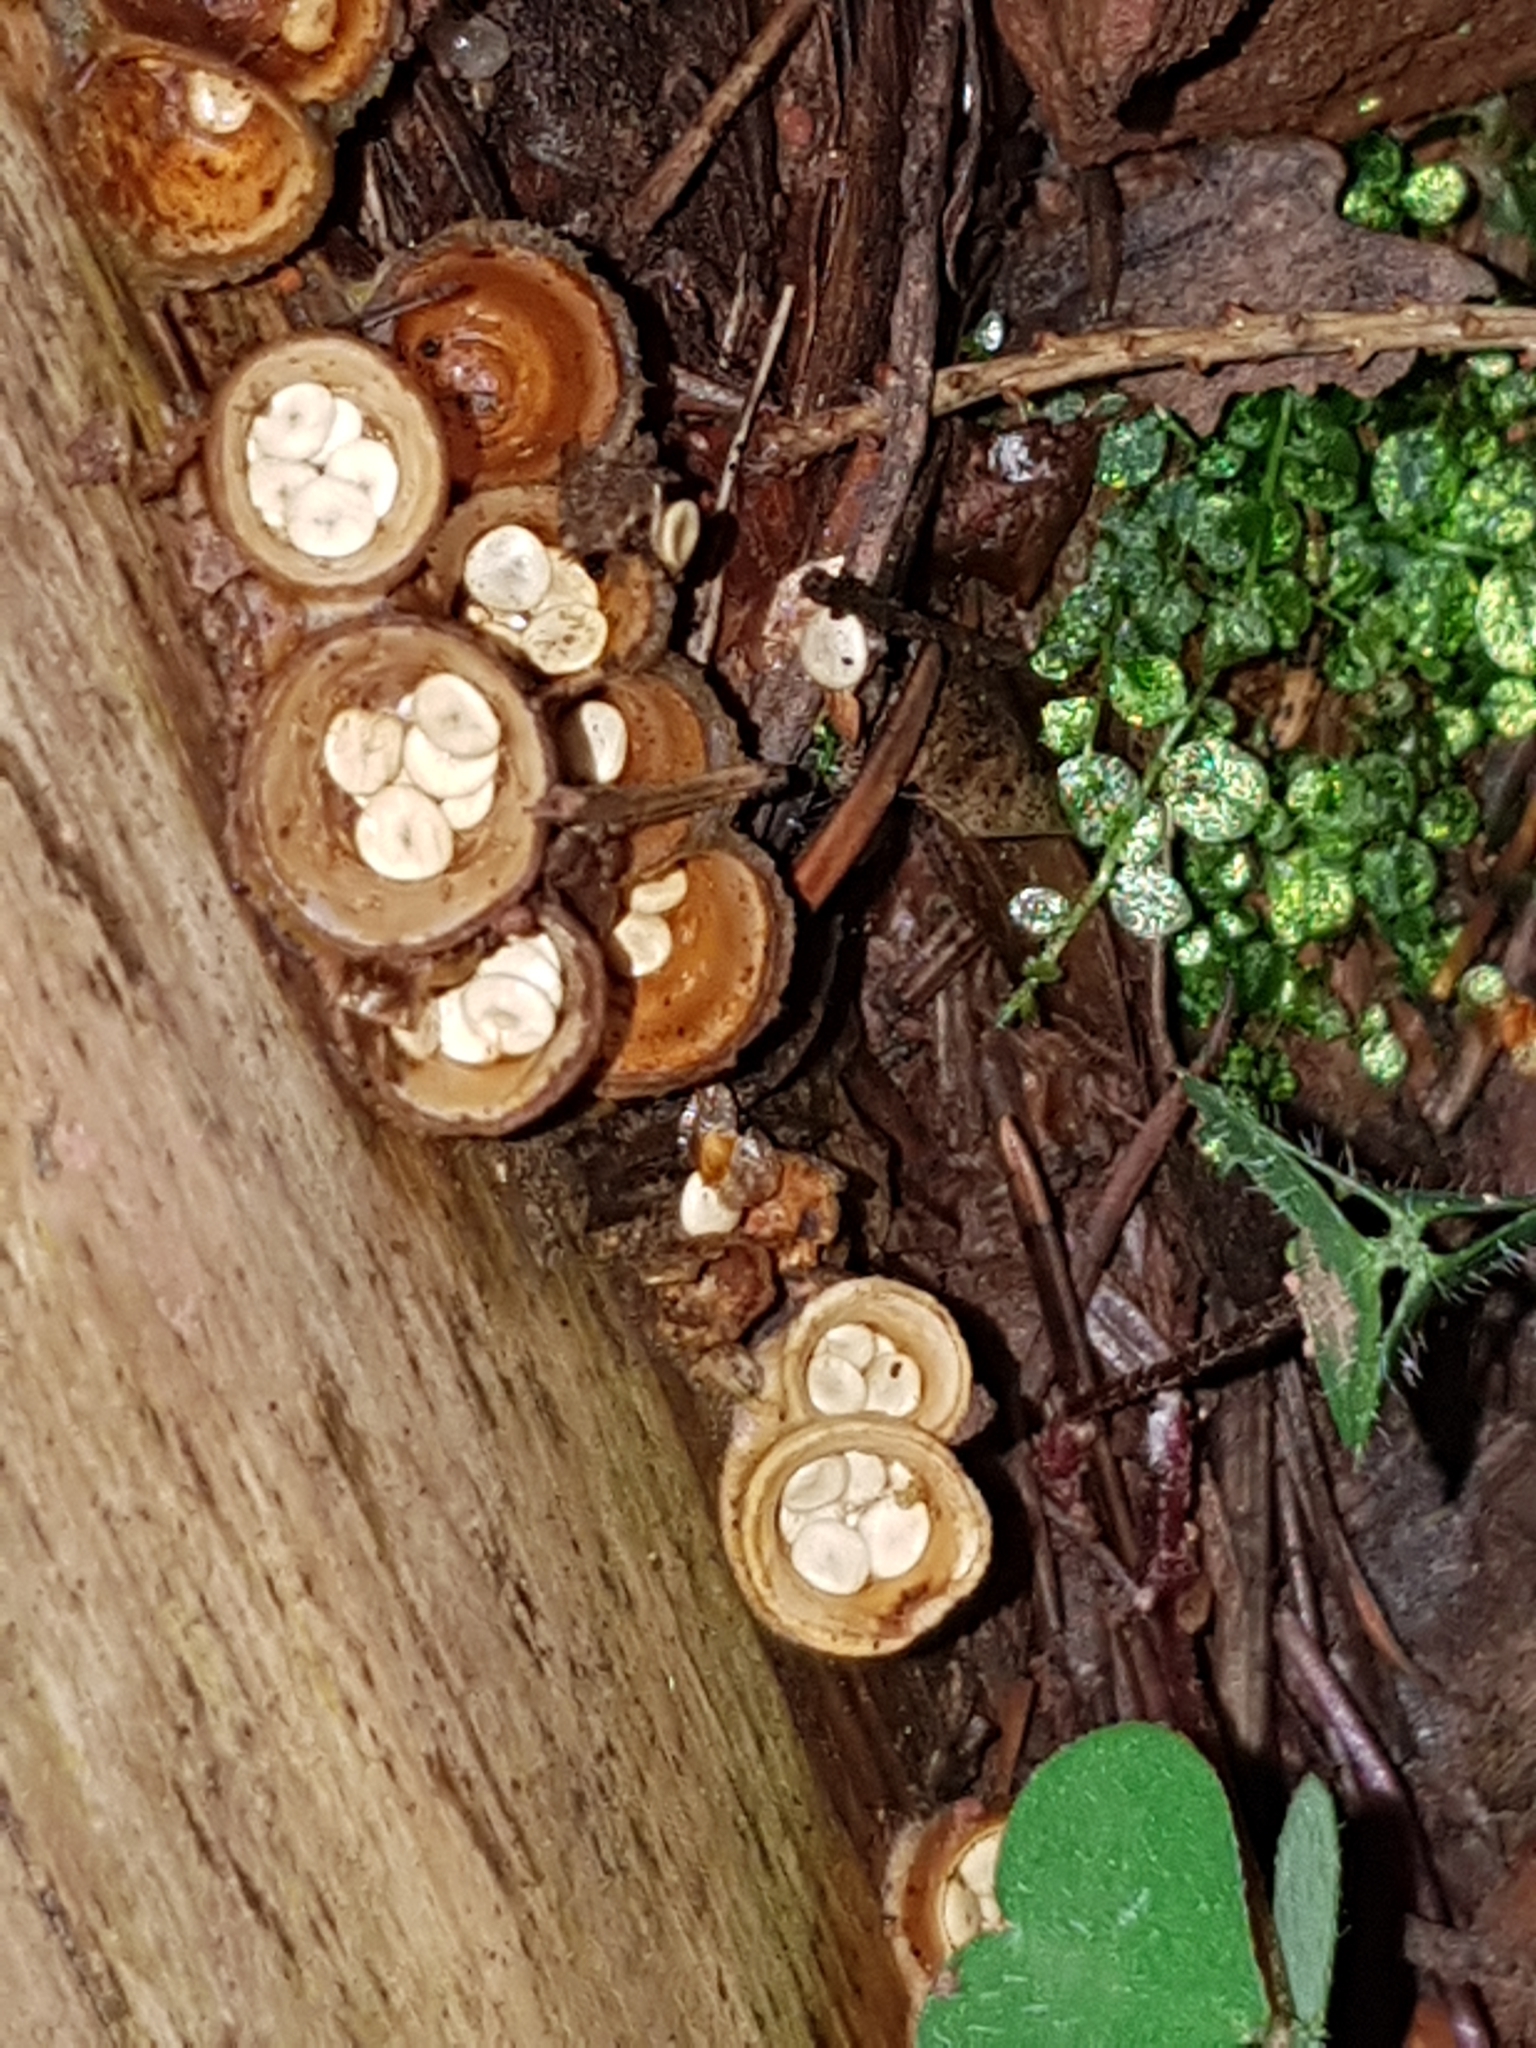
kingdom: Fungi
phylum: Basidiomycota
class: Agaricomycetes
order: Agaricales
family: Nidulariaceae
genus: Crucibulum
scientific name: Crucibulum laeve
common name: Common bird's nest
